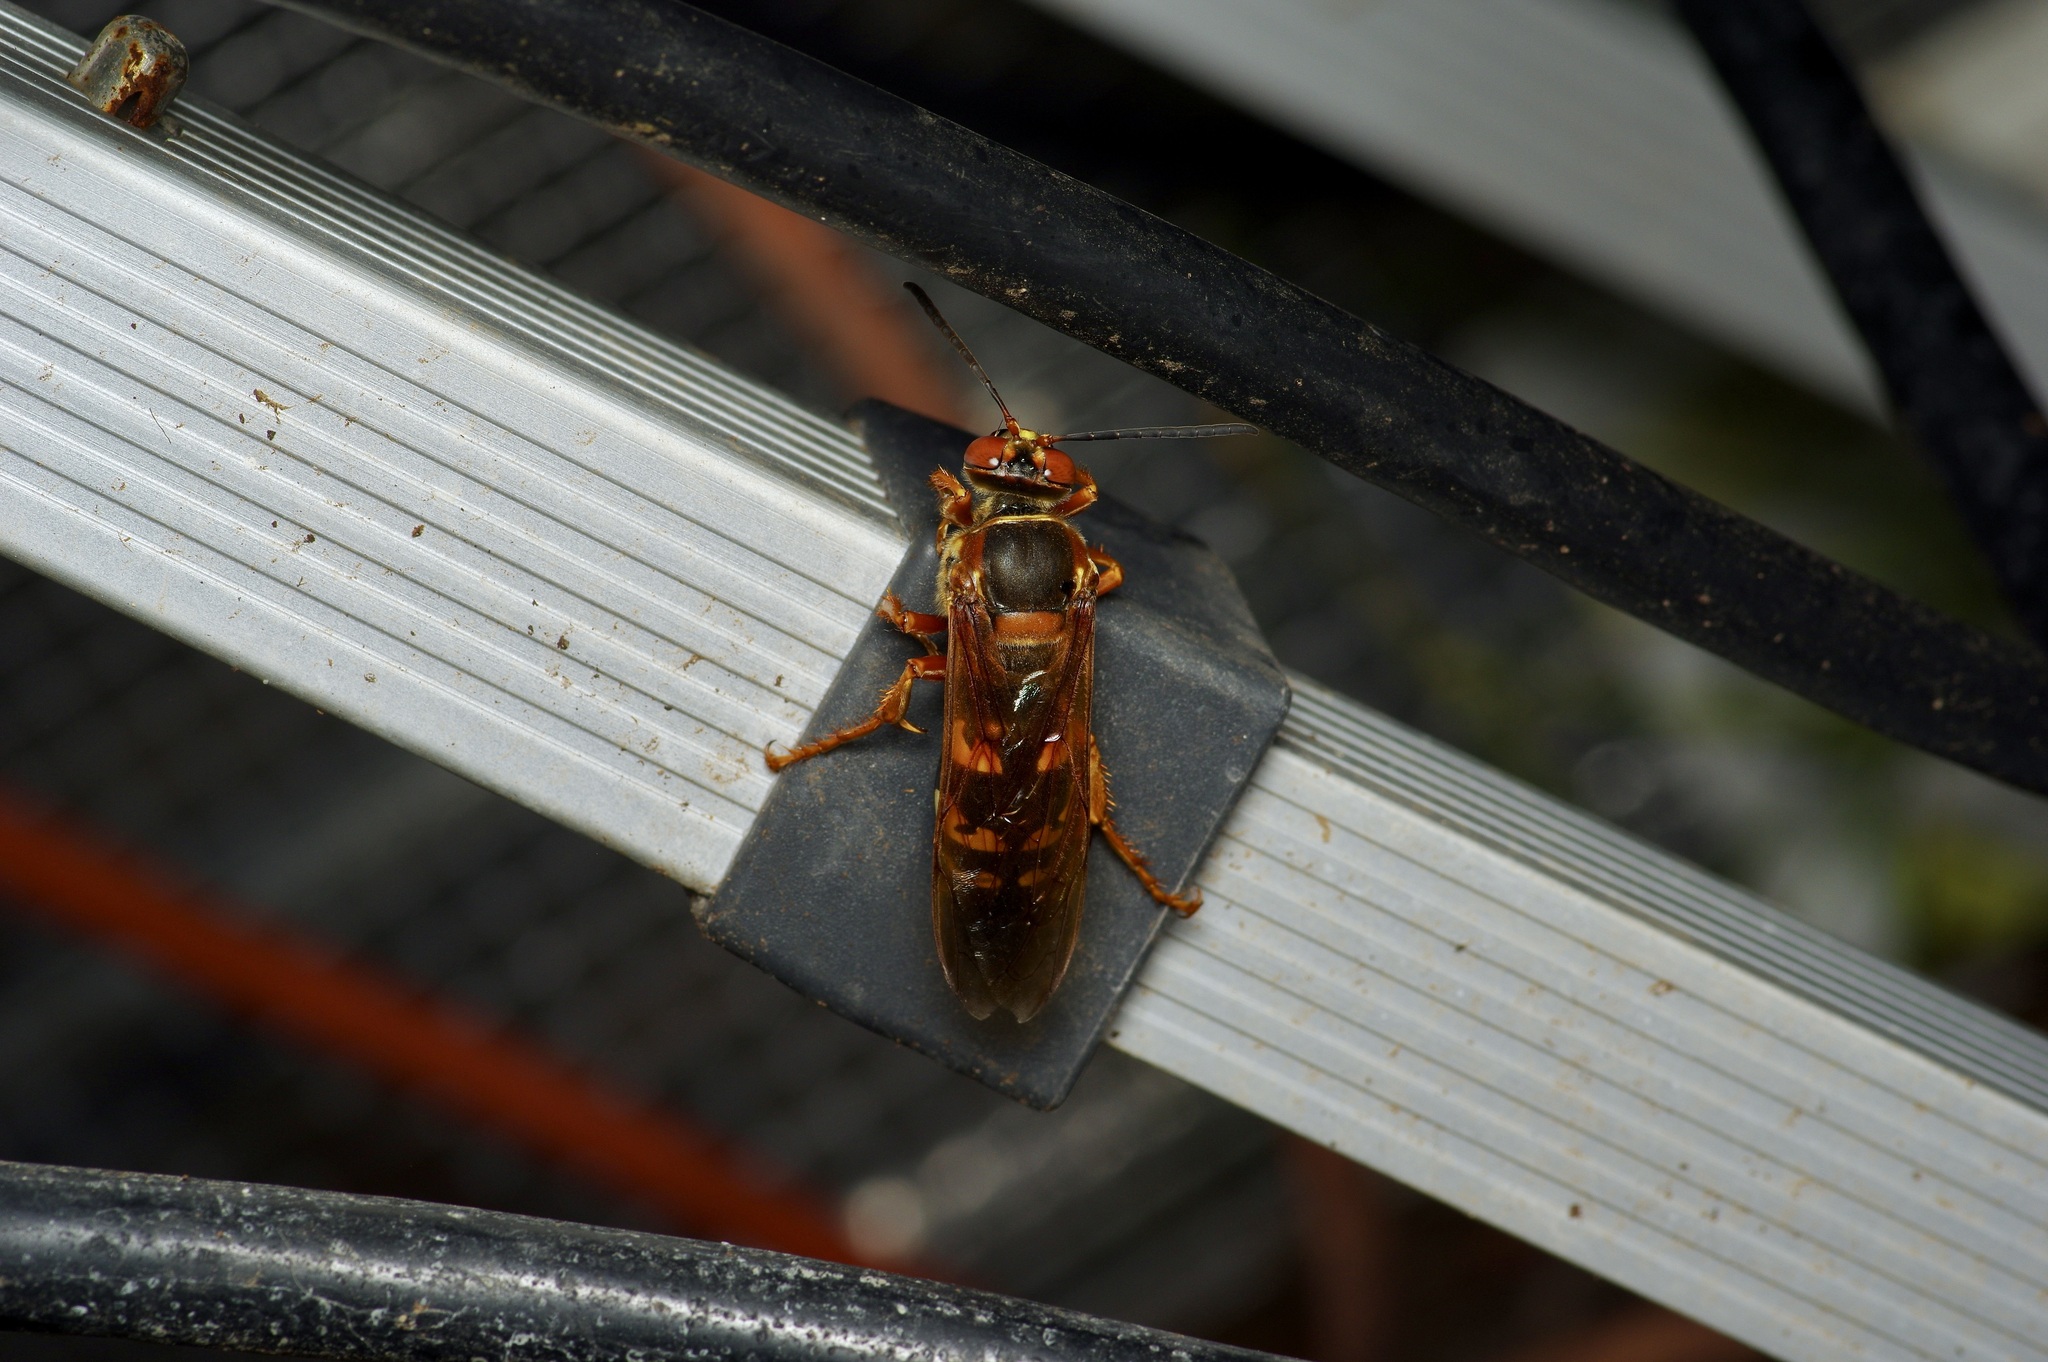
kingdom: Animalia
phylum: Arthropoda
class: Insecta
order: Hymenoptera
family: Crabronidae
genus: Sphecius
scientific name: Sphecius speciosus
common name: Cicada killer
